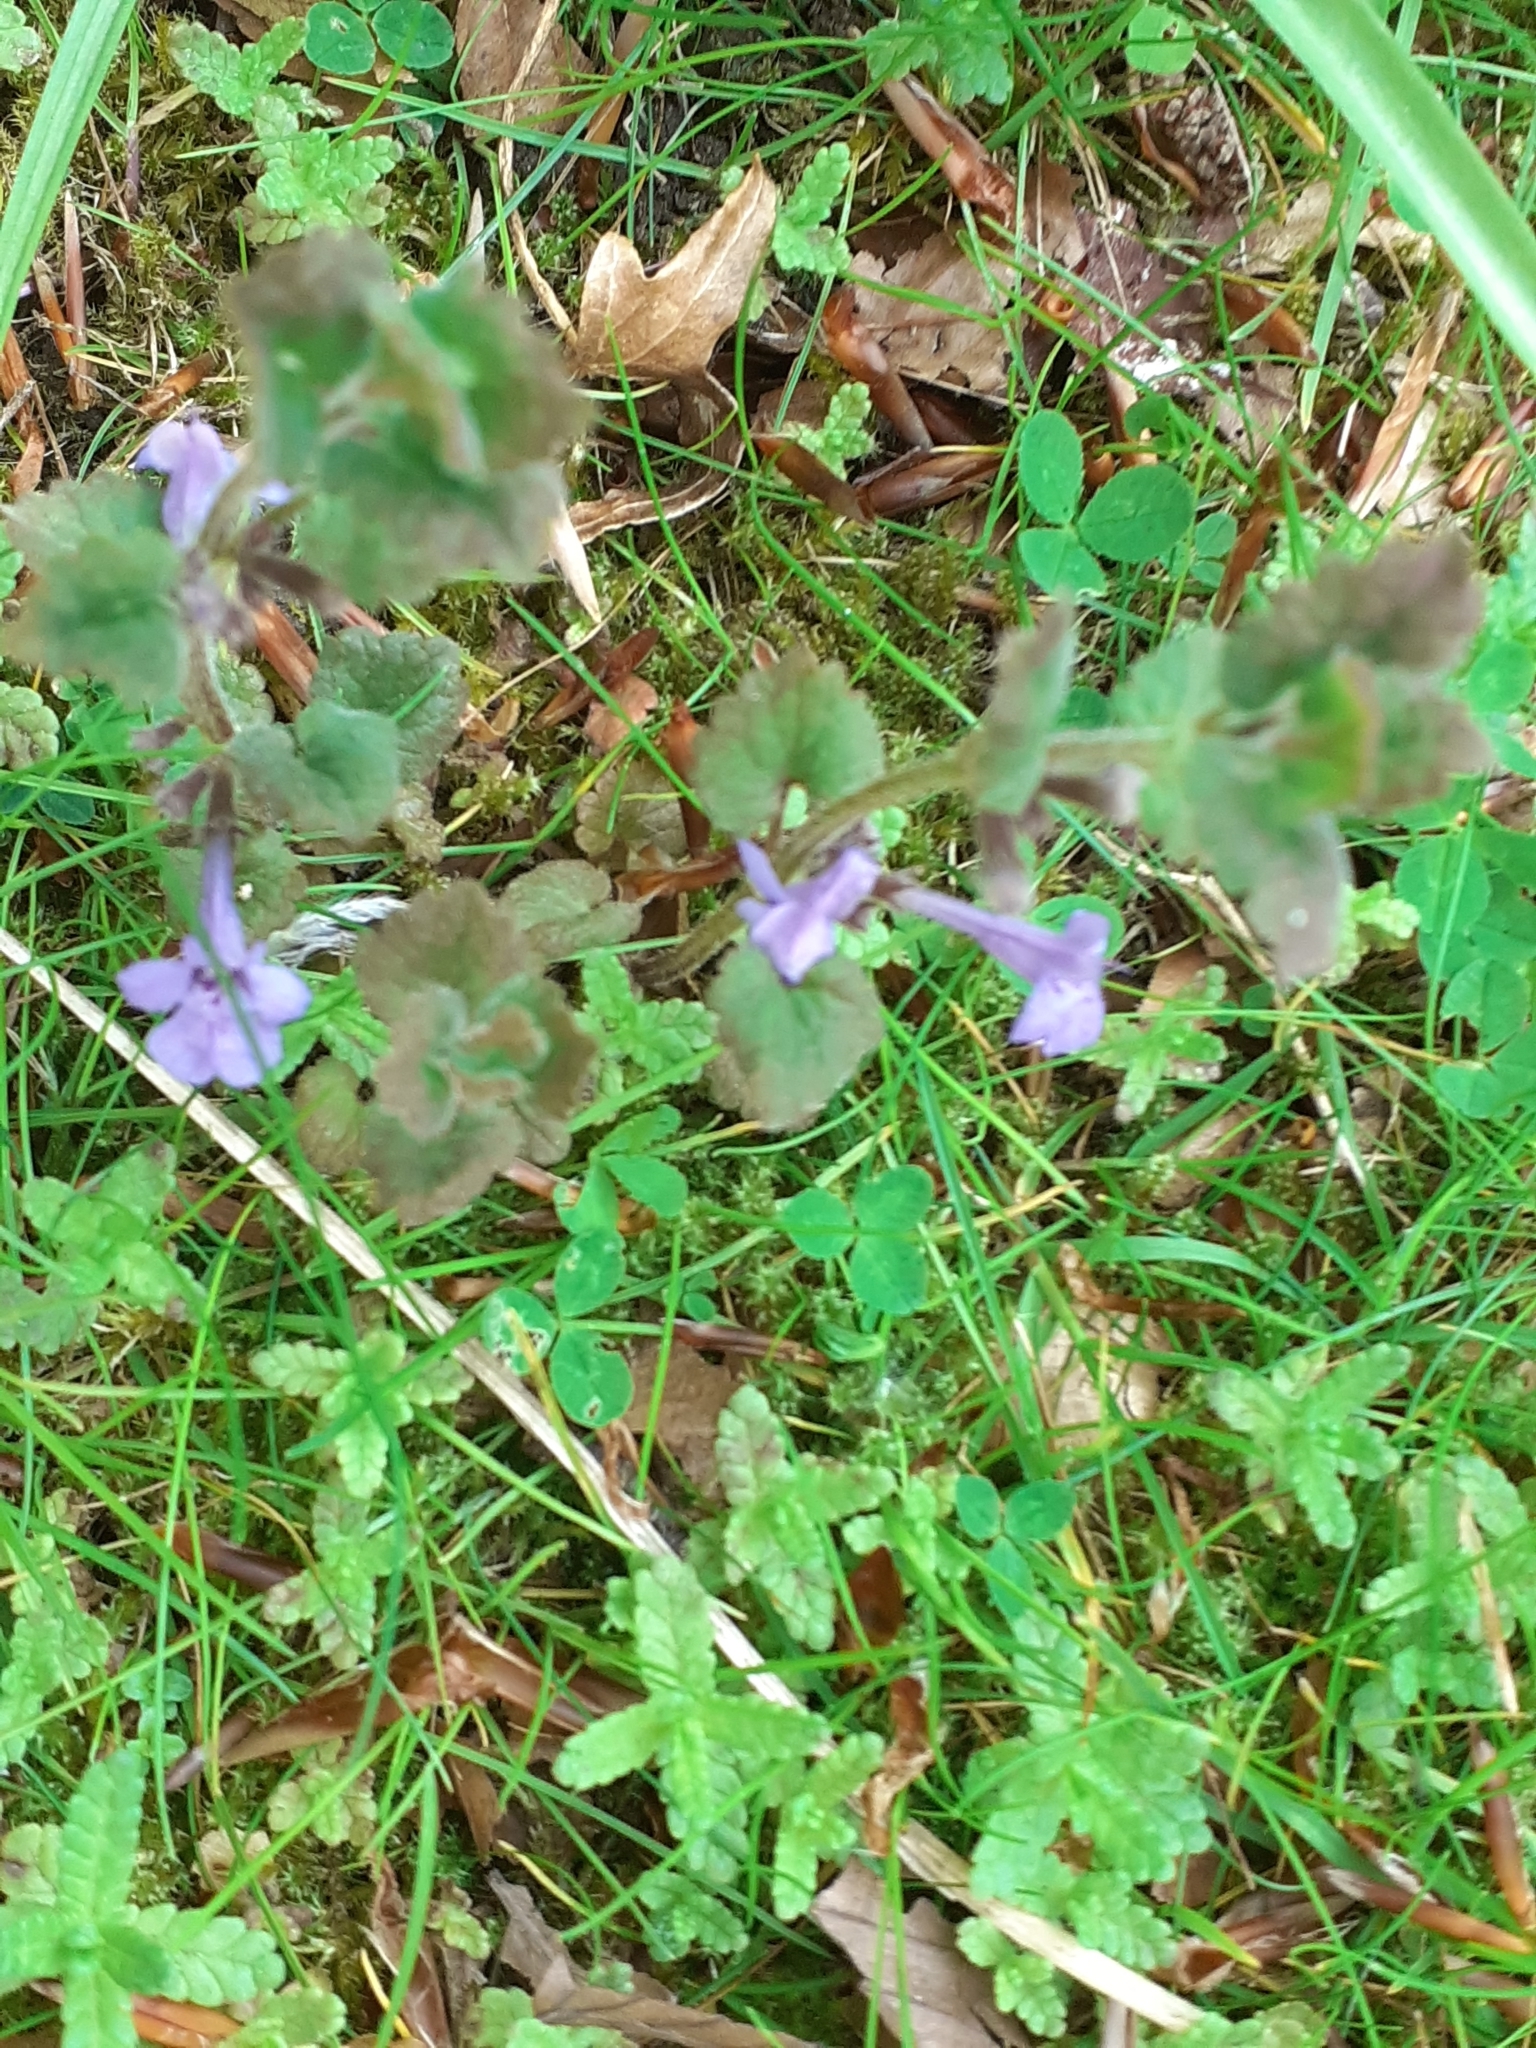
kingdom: Plantae
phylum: Tracheophyta
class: Magnoliopsida
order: Lamiales
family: Lamiaceae
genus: Glechoma
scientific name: Glechoma hederacea
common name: Ground ivy
